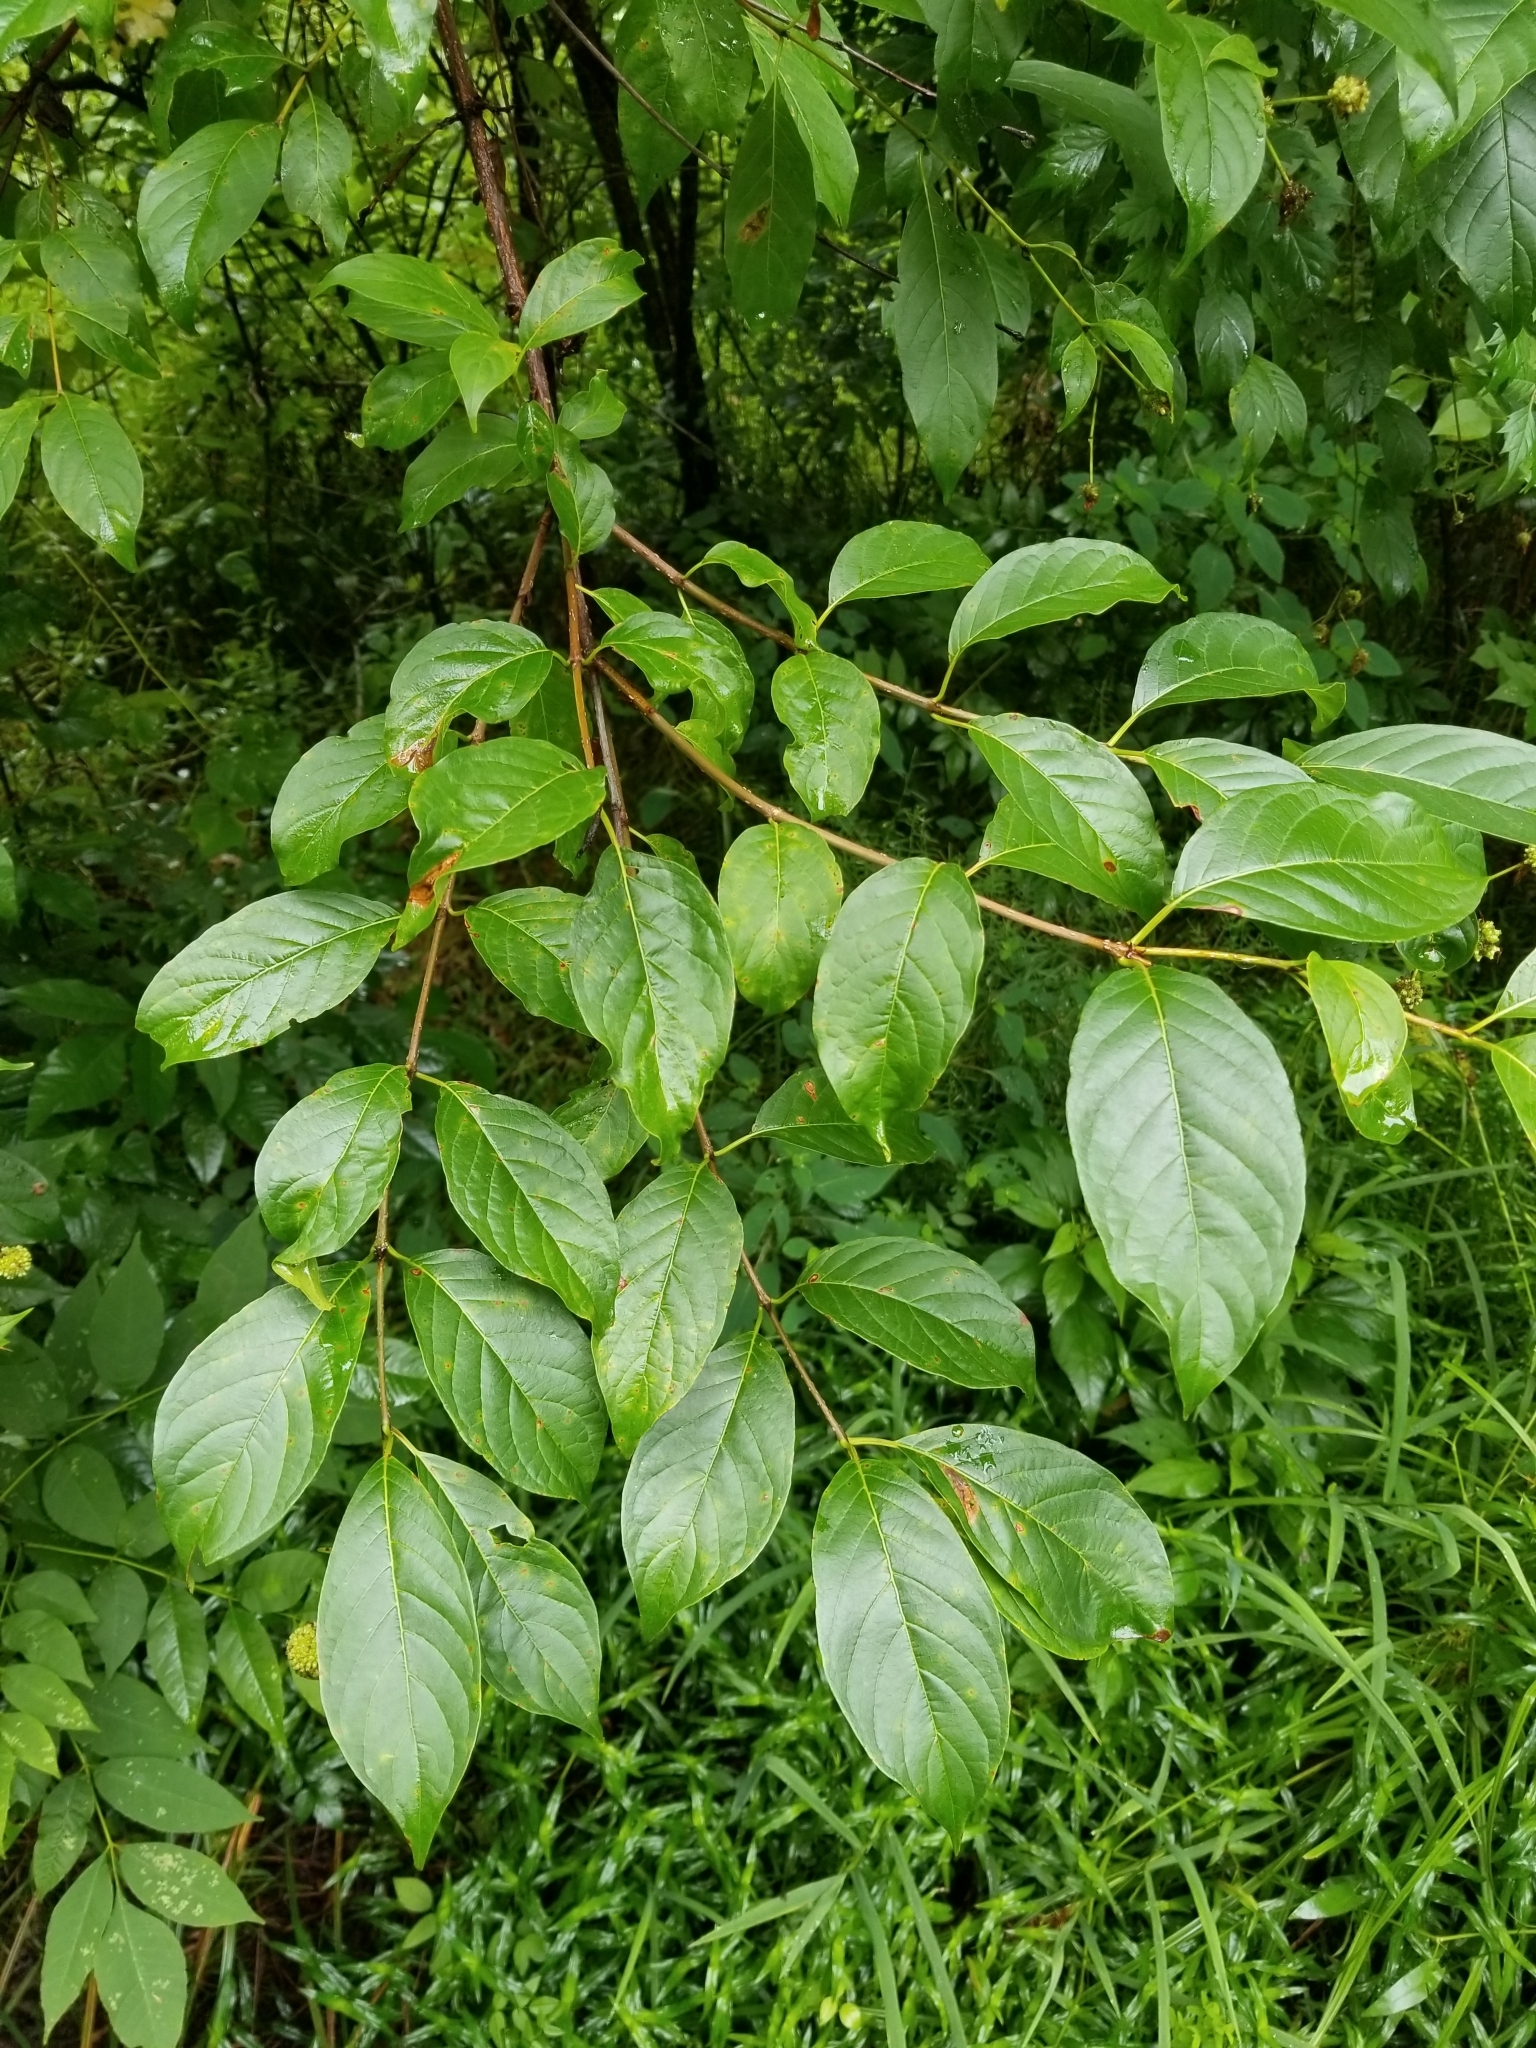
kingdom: Plantae
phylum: Tracheophyta
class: Magnoliopsida
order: Gentianales
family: Rubiaceae
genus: Cephalanthus
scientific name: Cephalanthus occidentalis
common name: Button-willow
